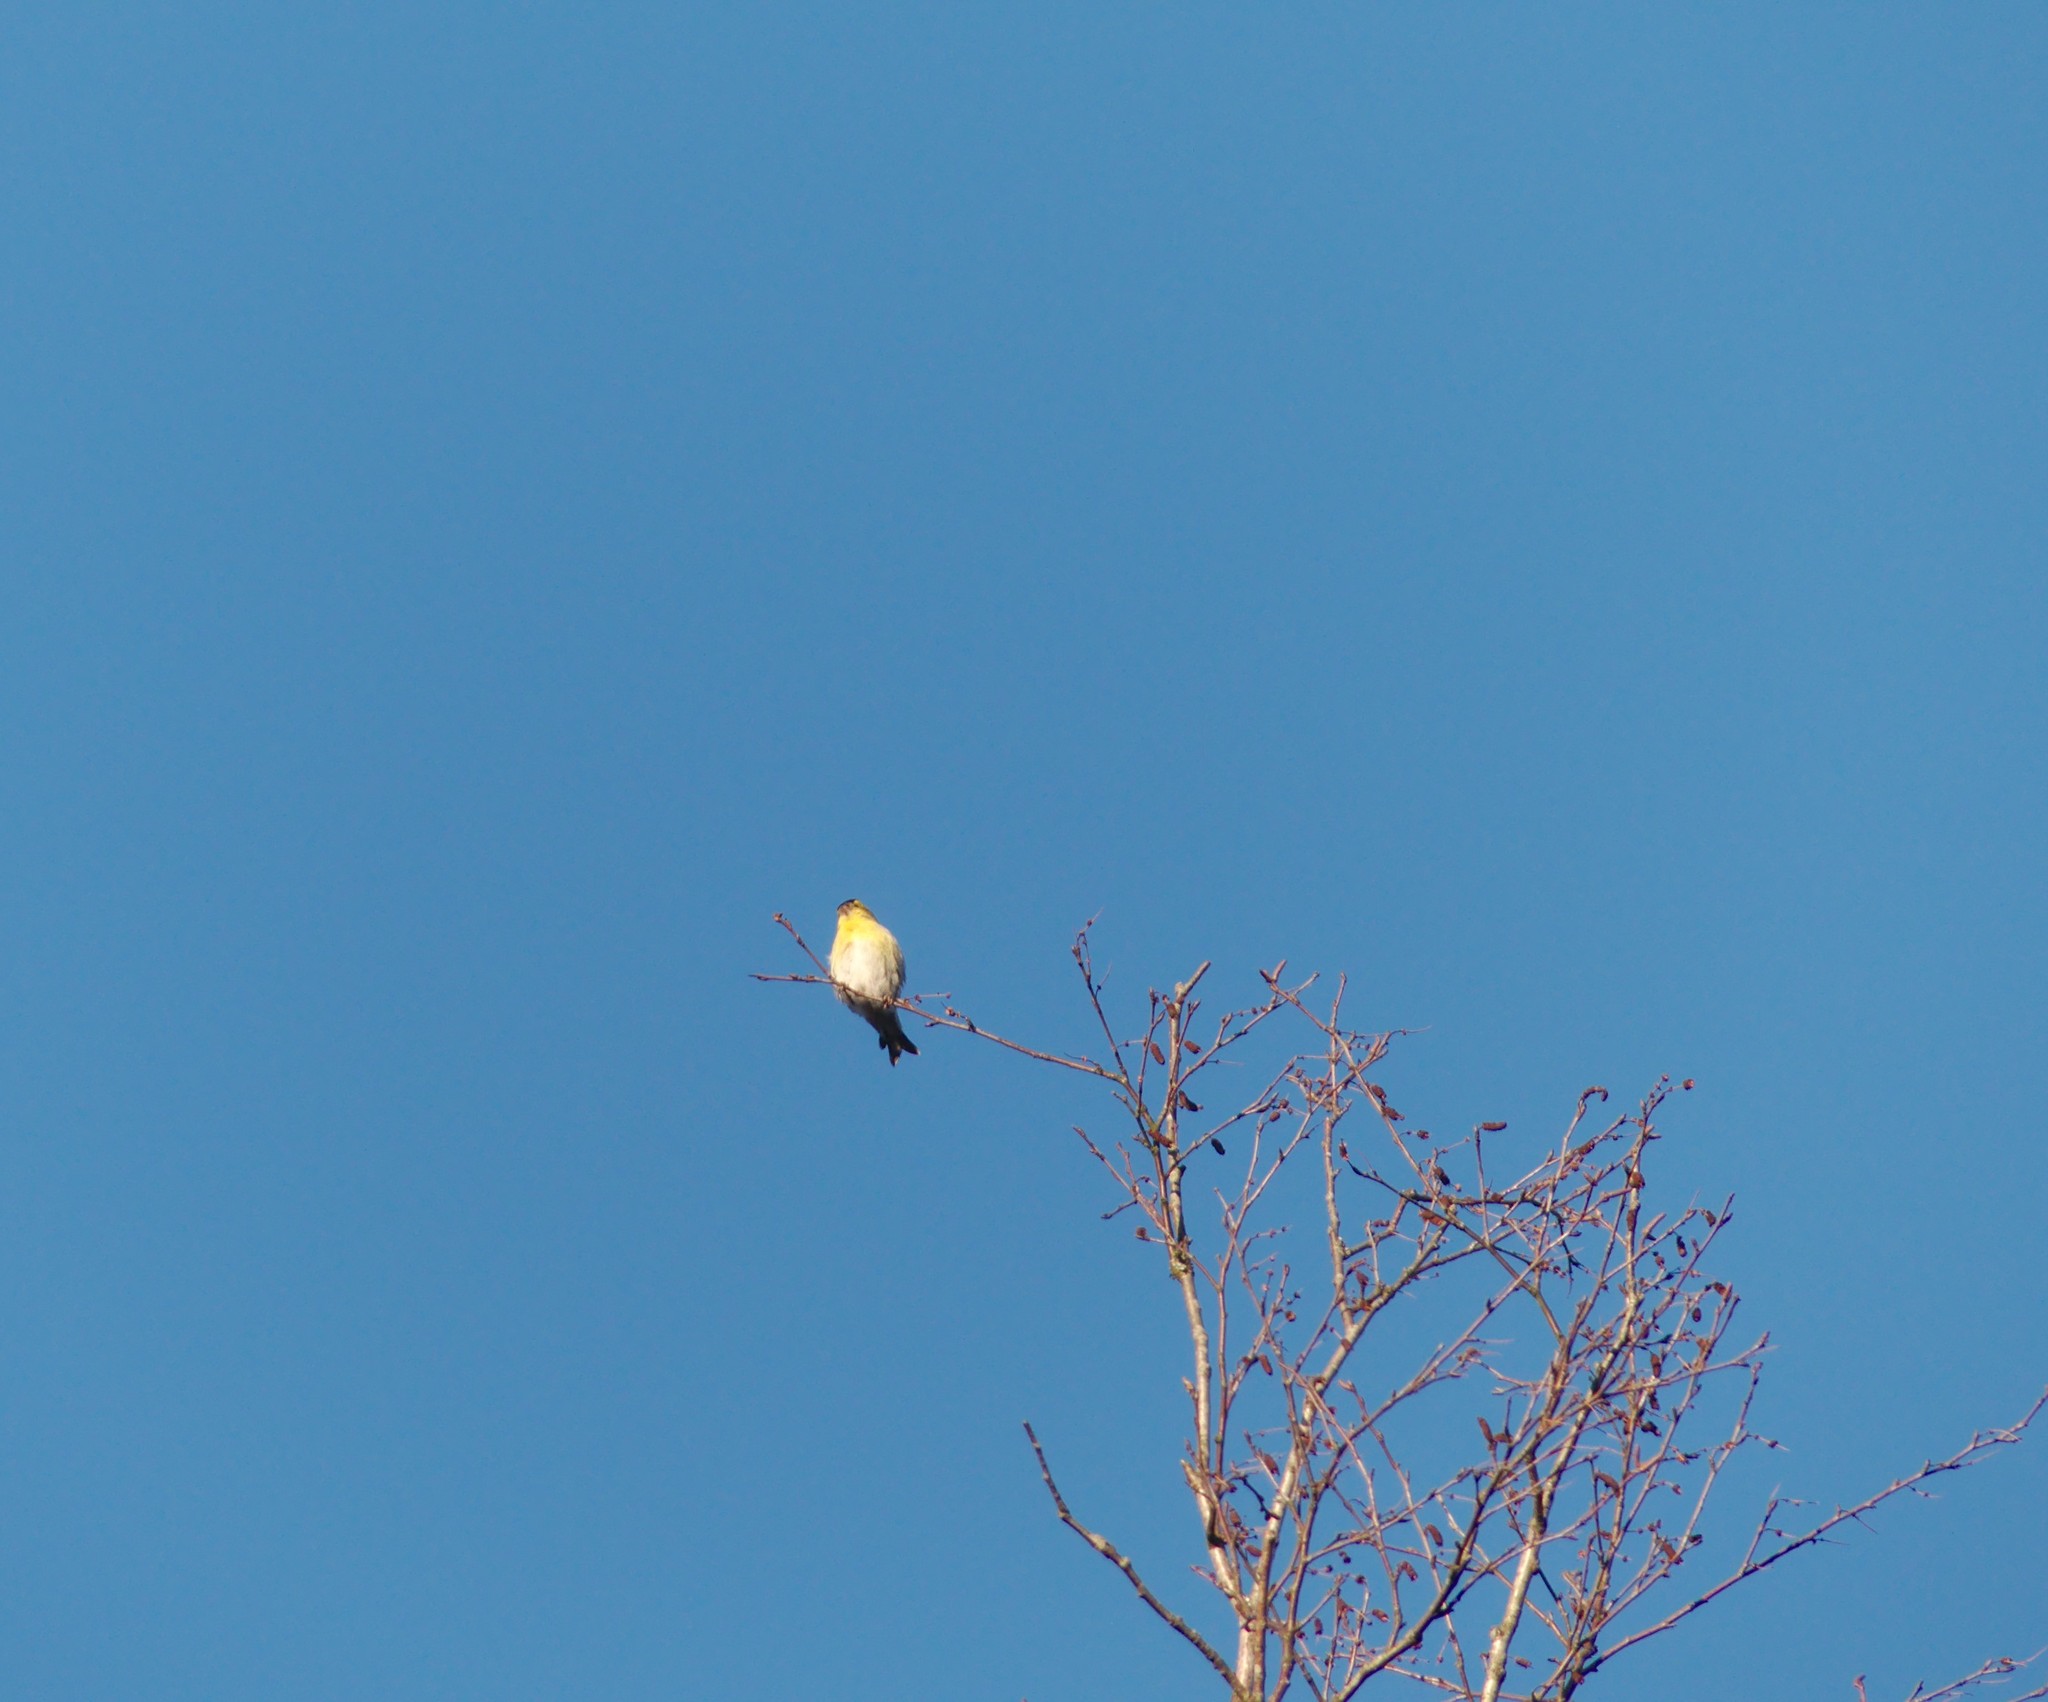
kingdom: Animalia
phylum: Chordata
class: Aves
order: Passeriformes
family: Fringillidae
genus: Spinus
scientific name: Spinus spinus
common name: Eurasian siskin
